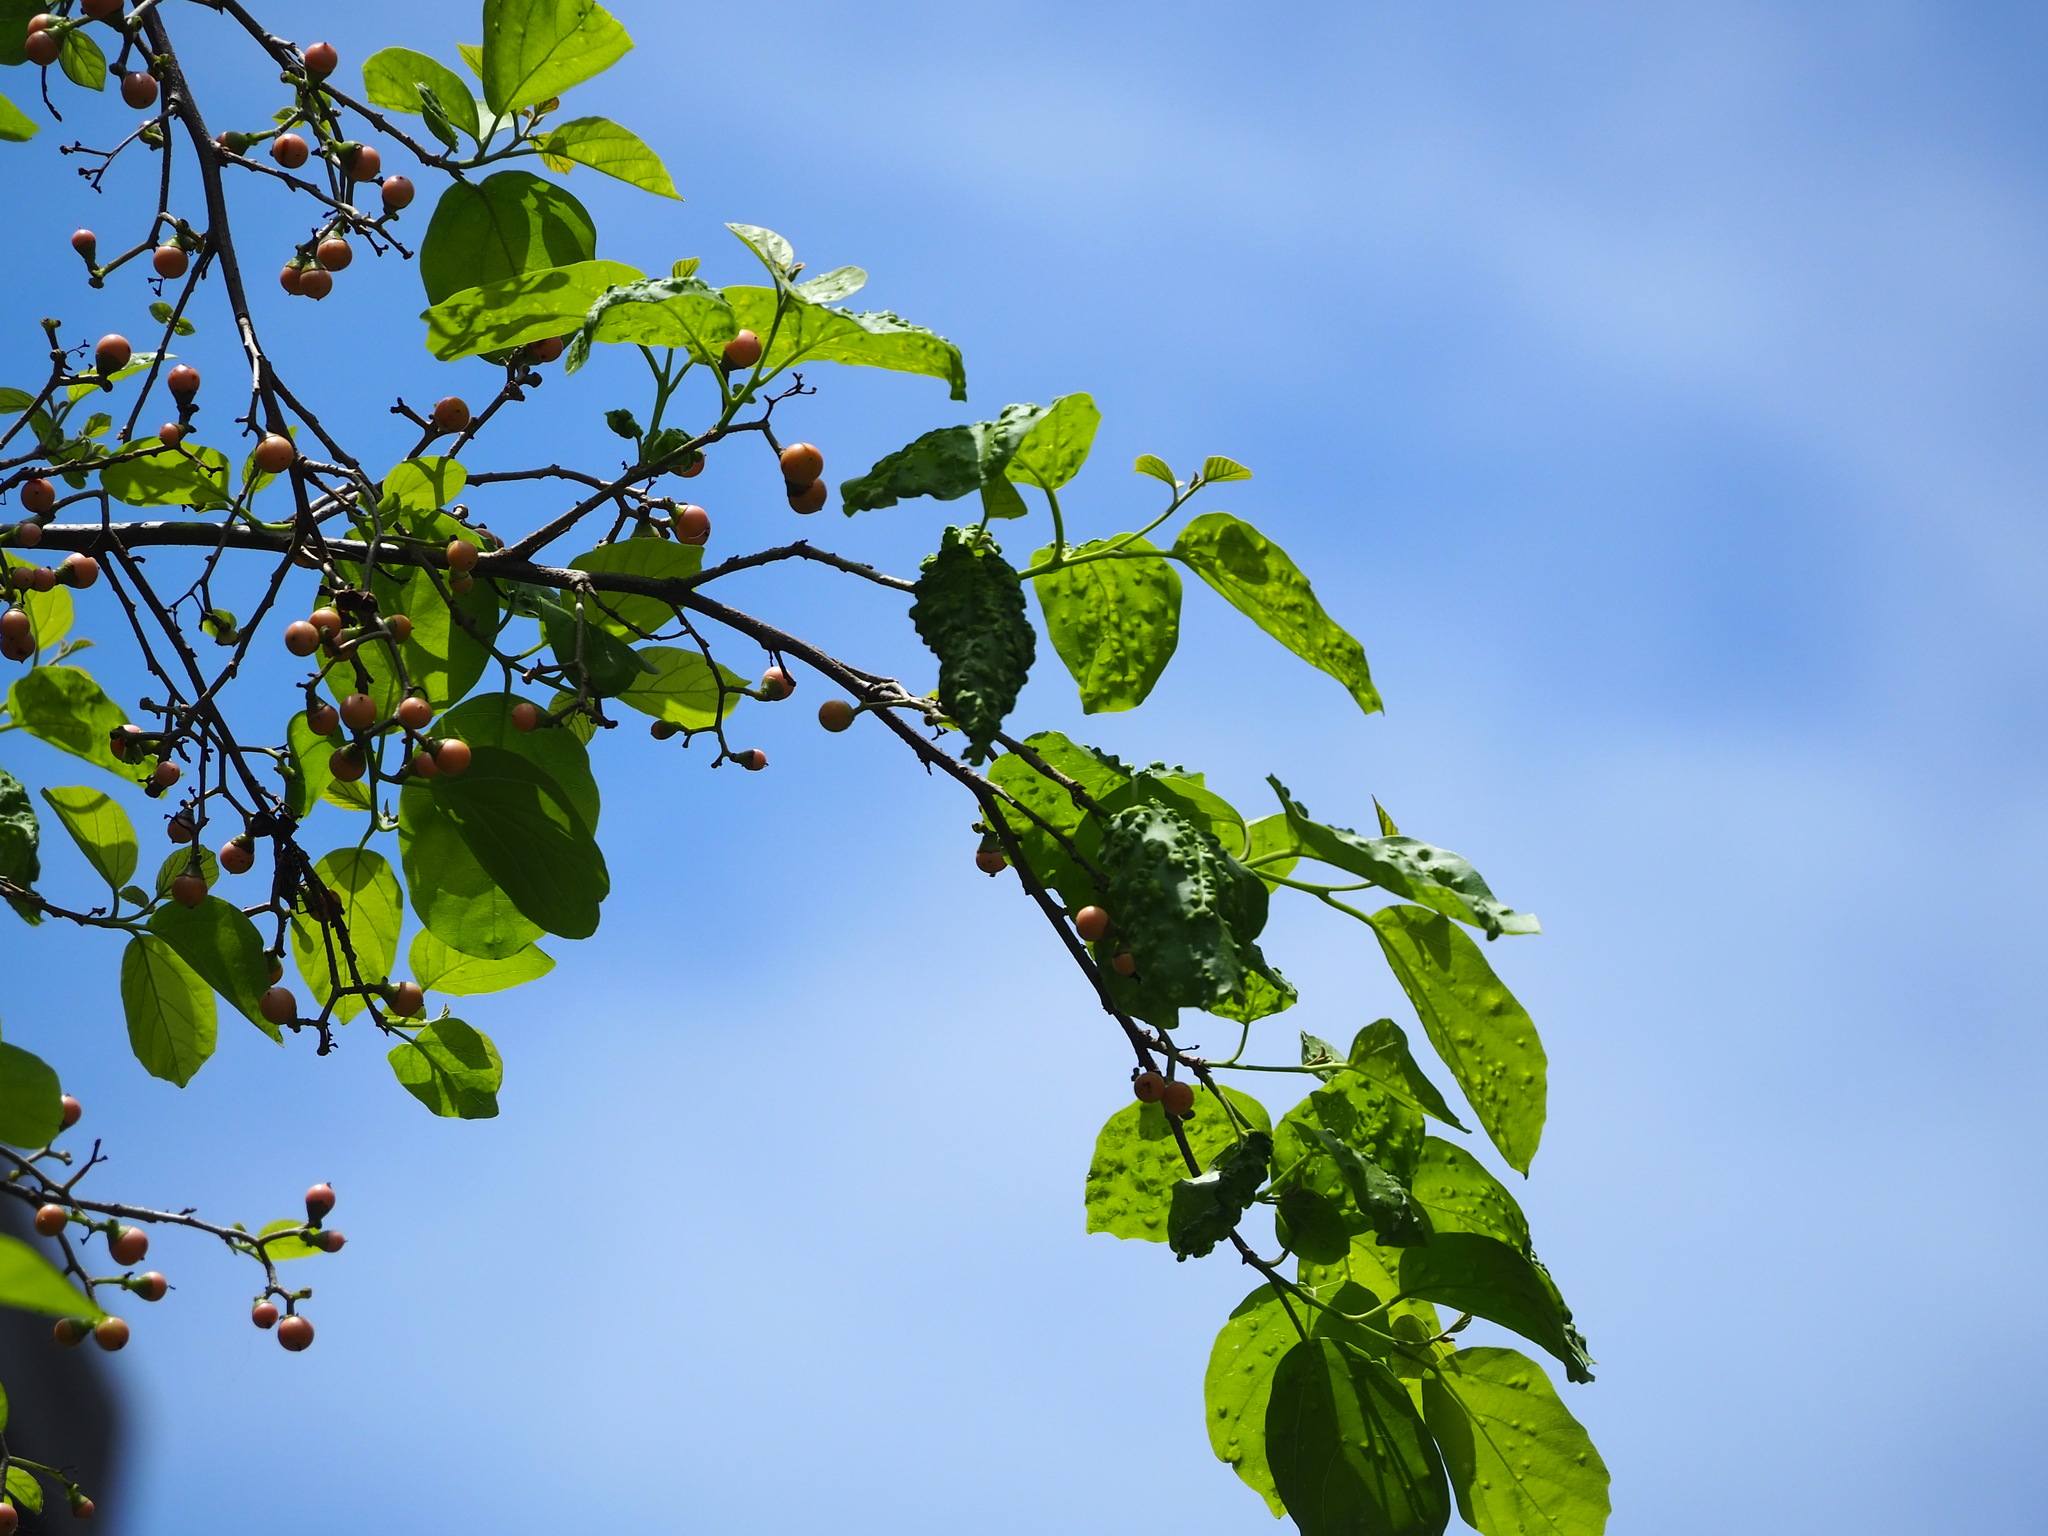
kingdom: Plantae
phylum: Tracheophyta
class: Magnoliopsida
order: Boraginales
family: Cordiaceae
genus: Cordia
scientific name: Cordia dichotoma
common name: Fragrant manjack
